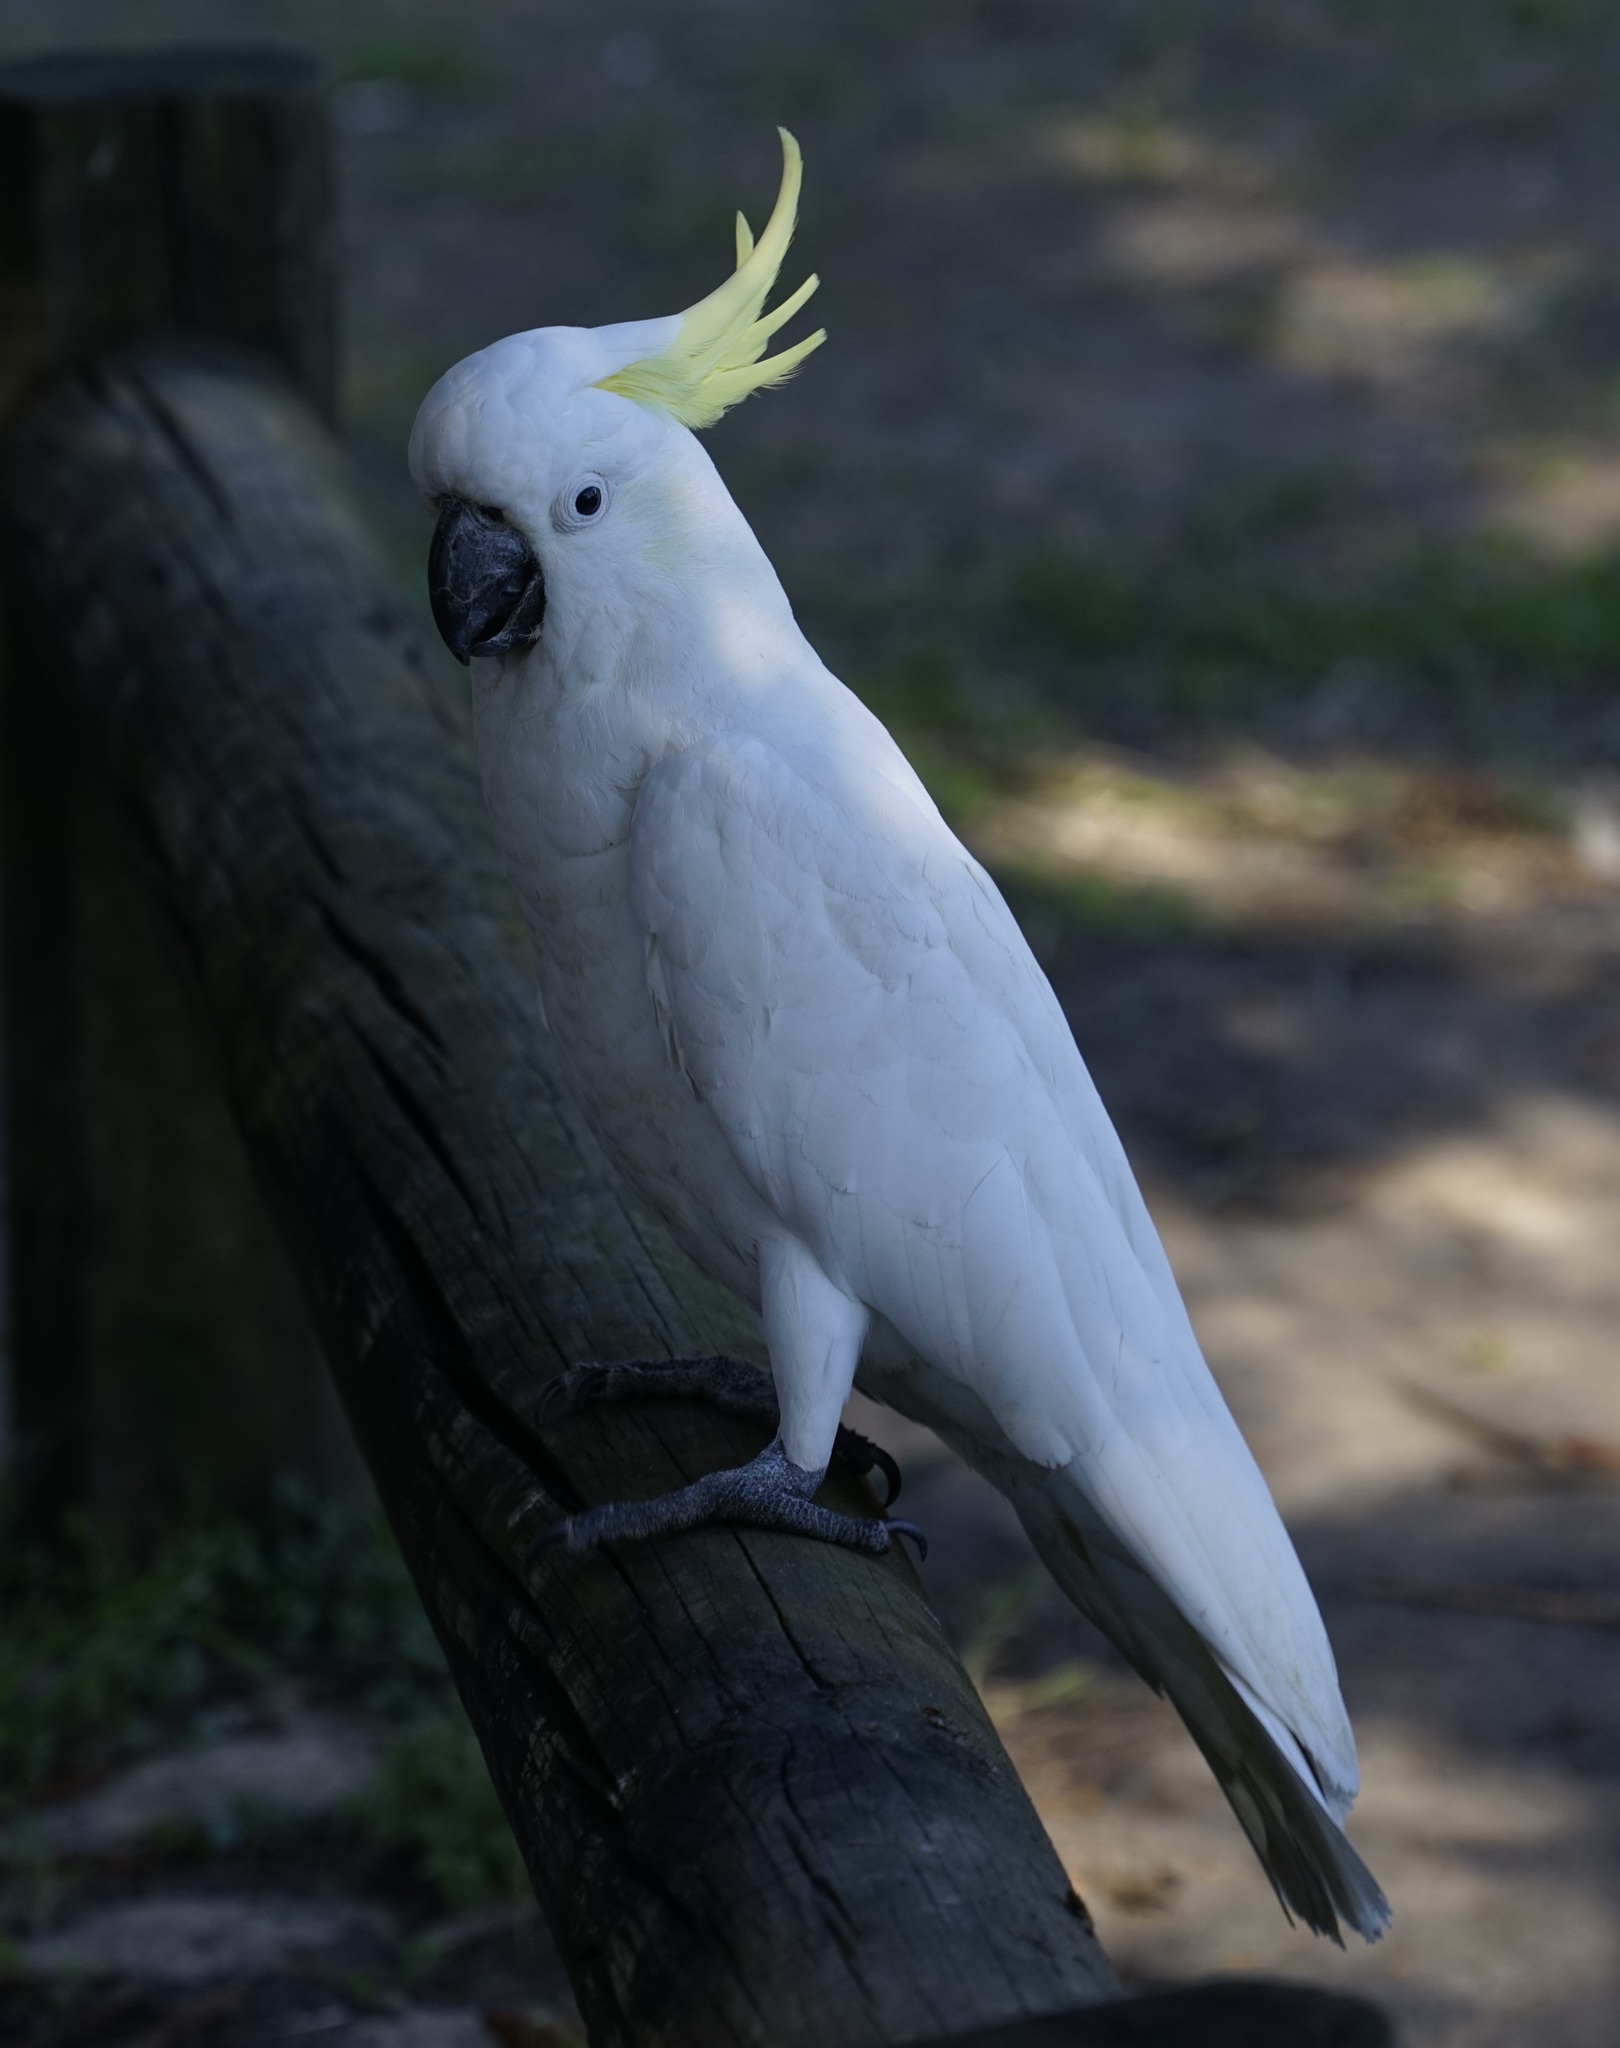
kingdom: Animalia
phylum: Chordata
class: Aves
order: Psittaciformes
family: Psittacidae
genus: Cacatua
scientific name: Cacatua galerita
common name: Sulphur-crested cockatoo
